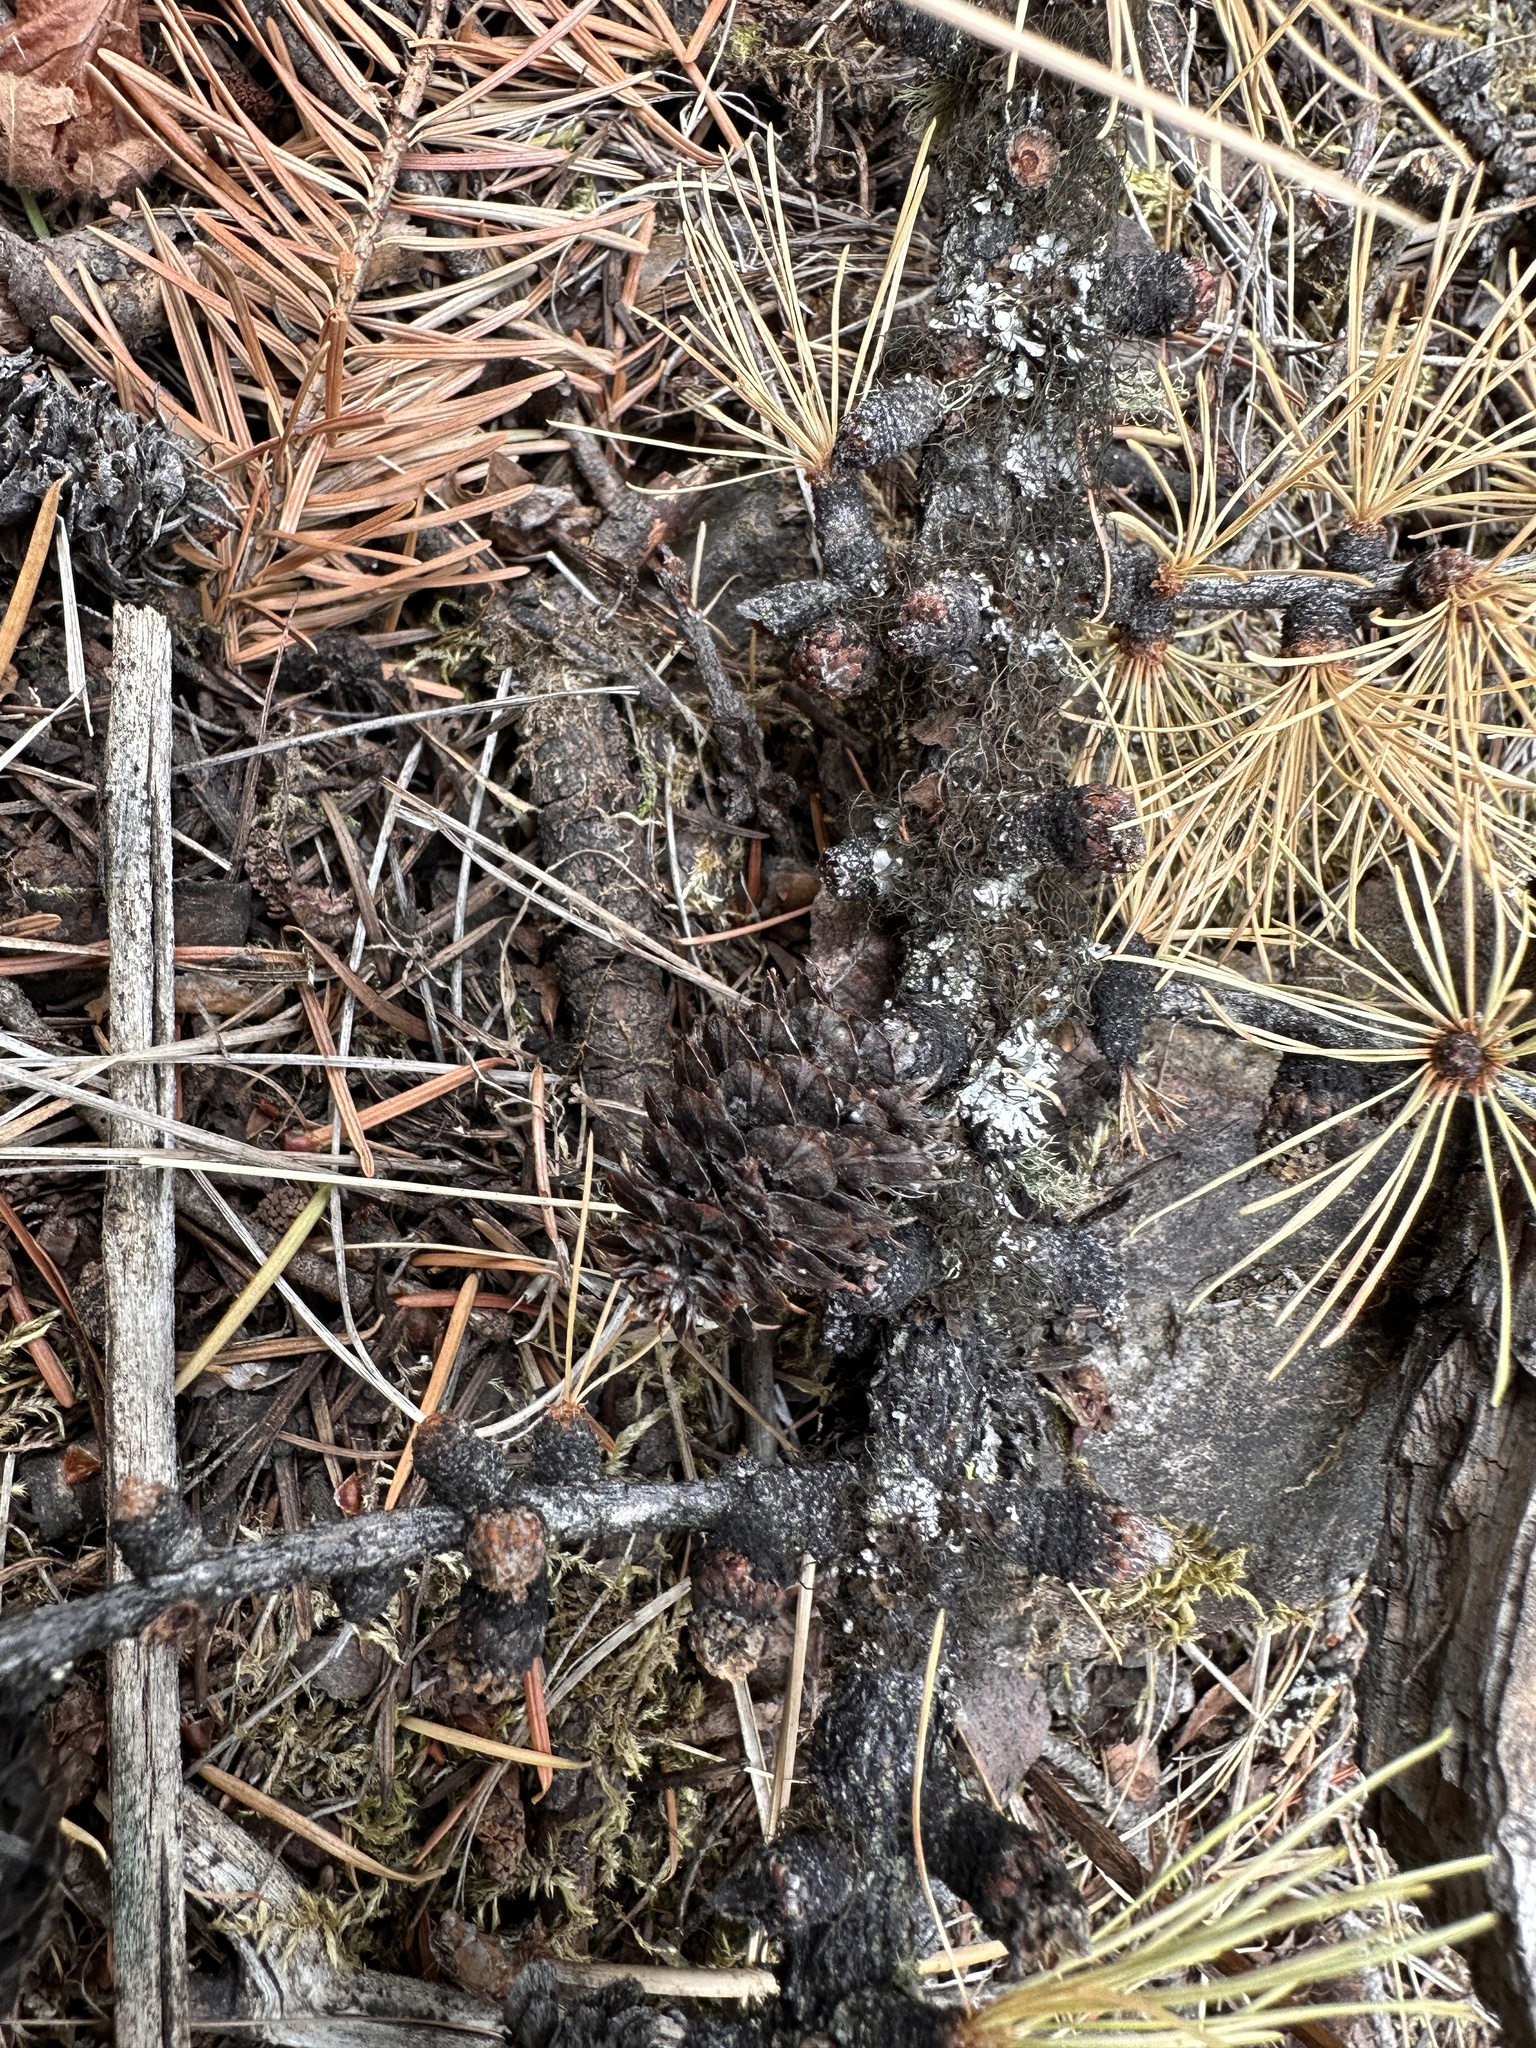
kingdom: Plantae
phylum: Tracheophyta
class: Pinopsida
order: Pinales
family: Pinaceae
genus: Larix
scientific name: Larix occidentalis
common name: Western larch
